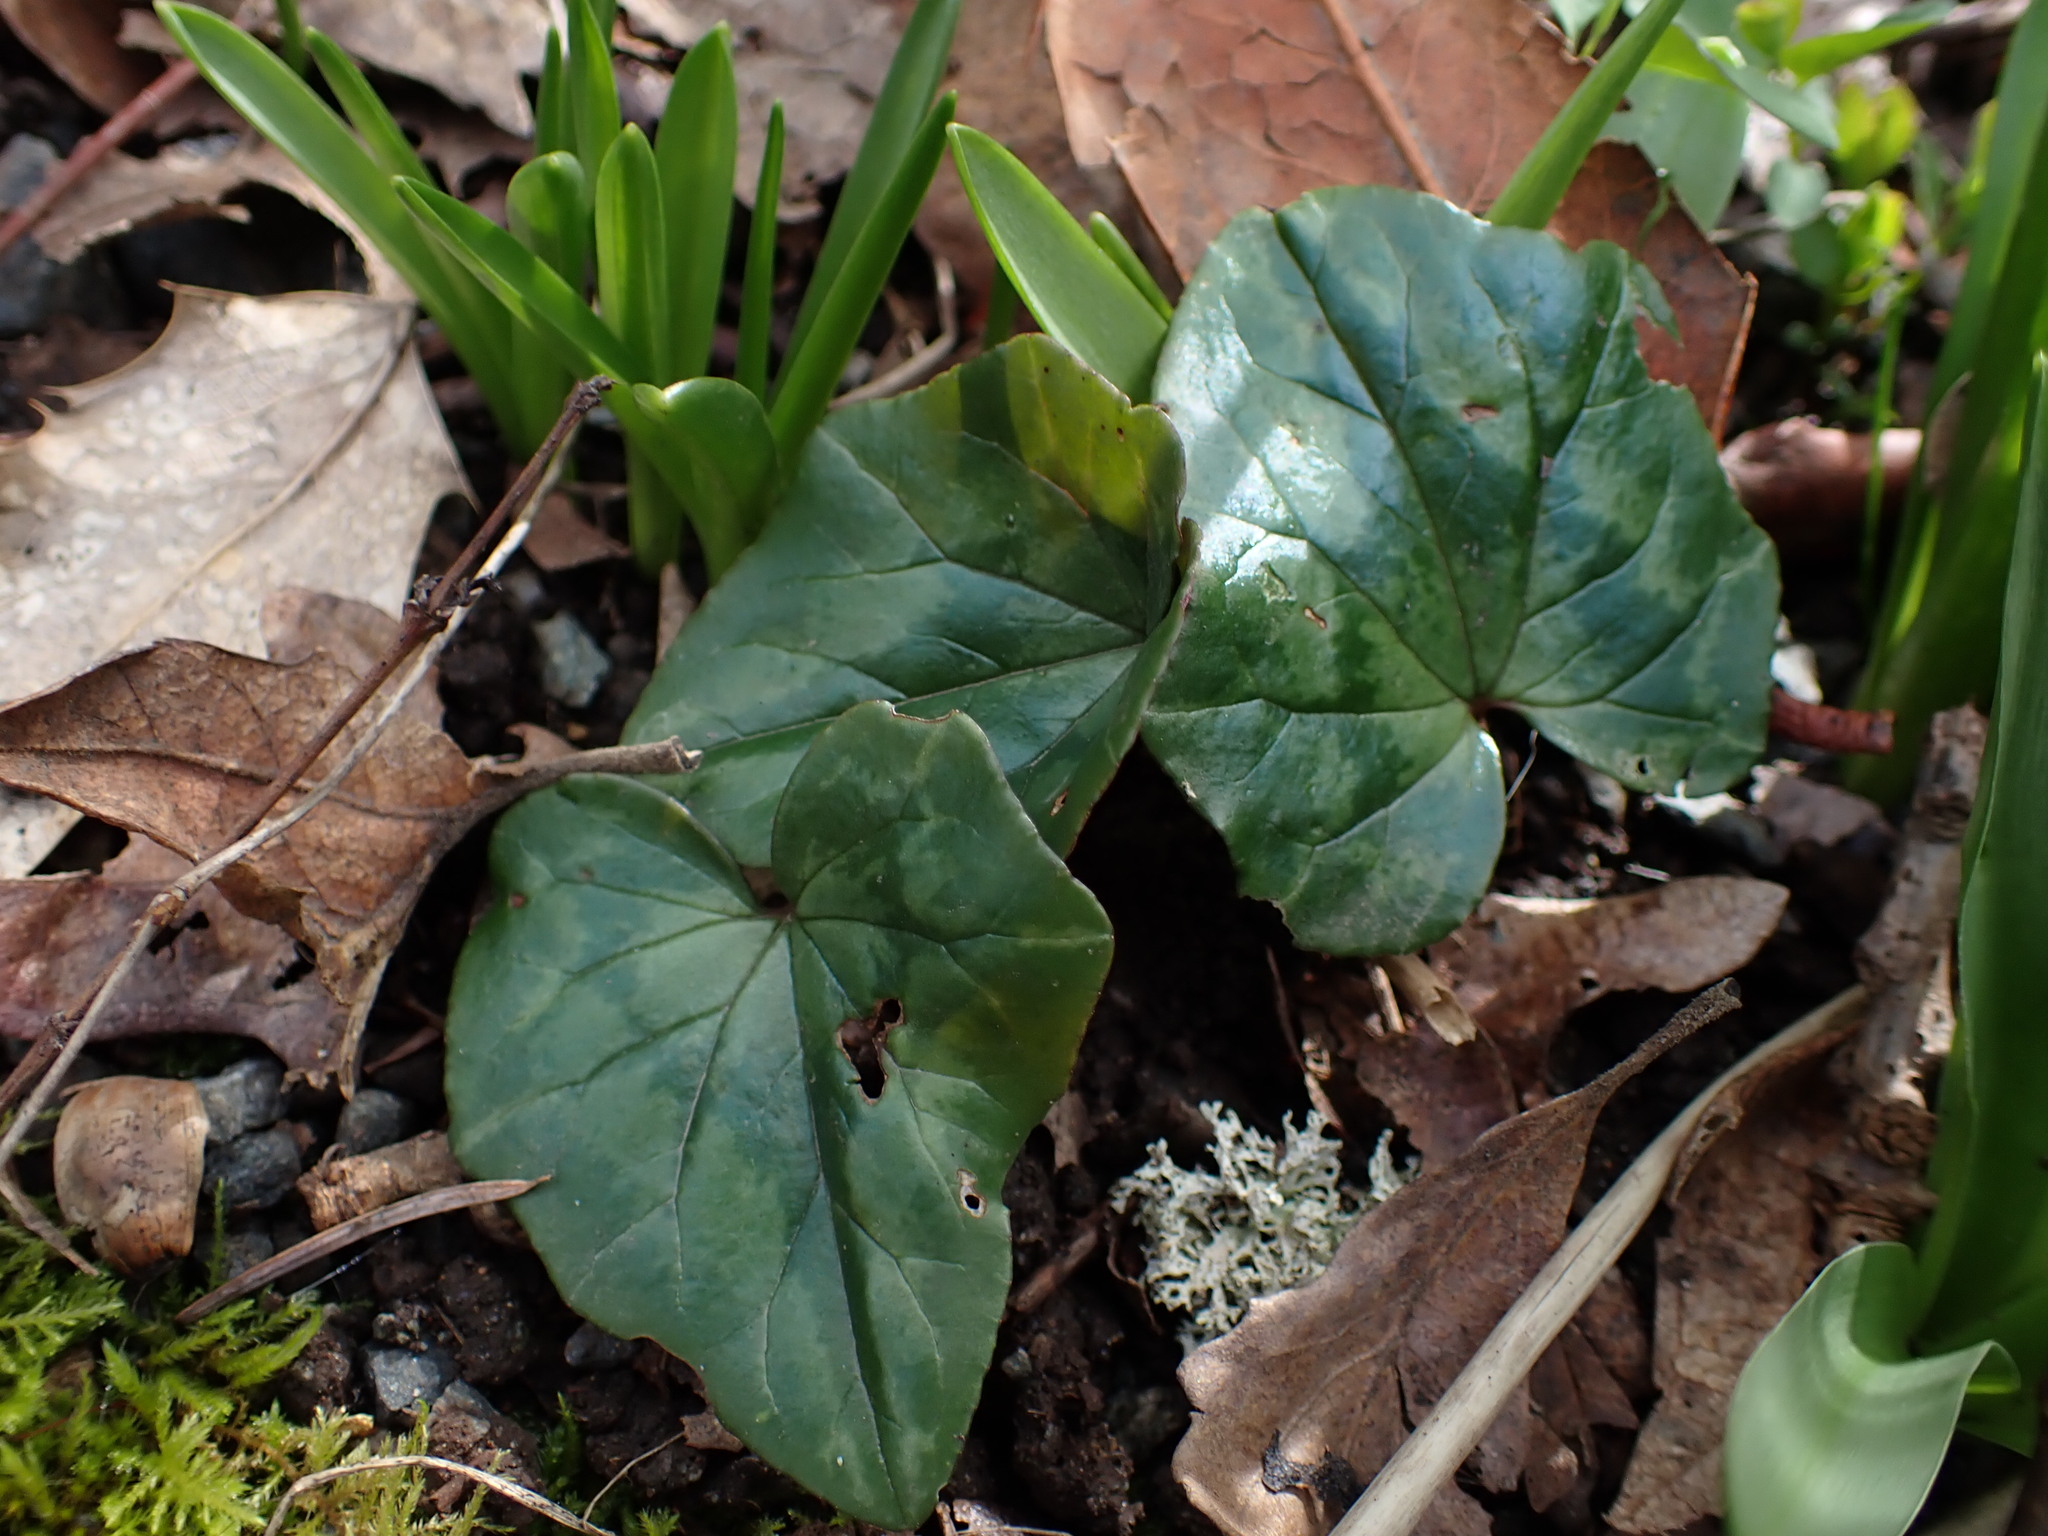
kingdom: Plantae
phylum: Tracheophyta
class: Magnoliopsida
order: Ericales
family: Primulaceae
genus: Cyclamen
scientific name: Cyclamen hederifolium
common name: Sowbread
